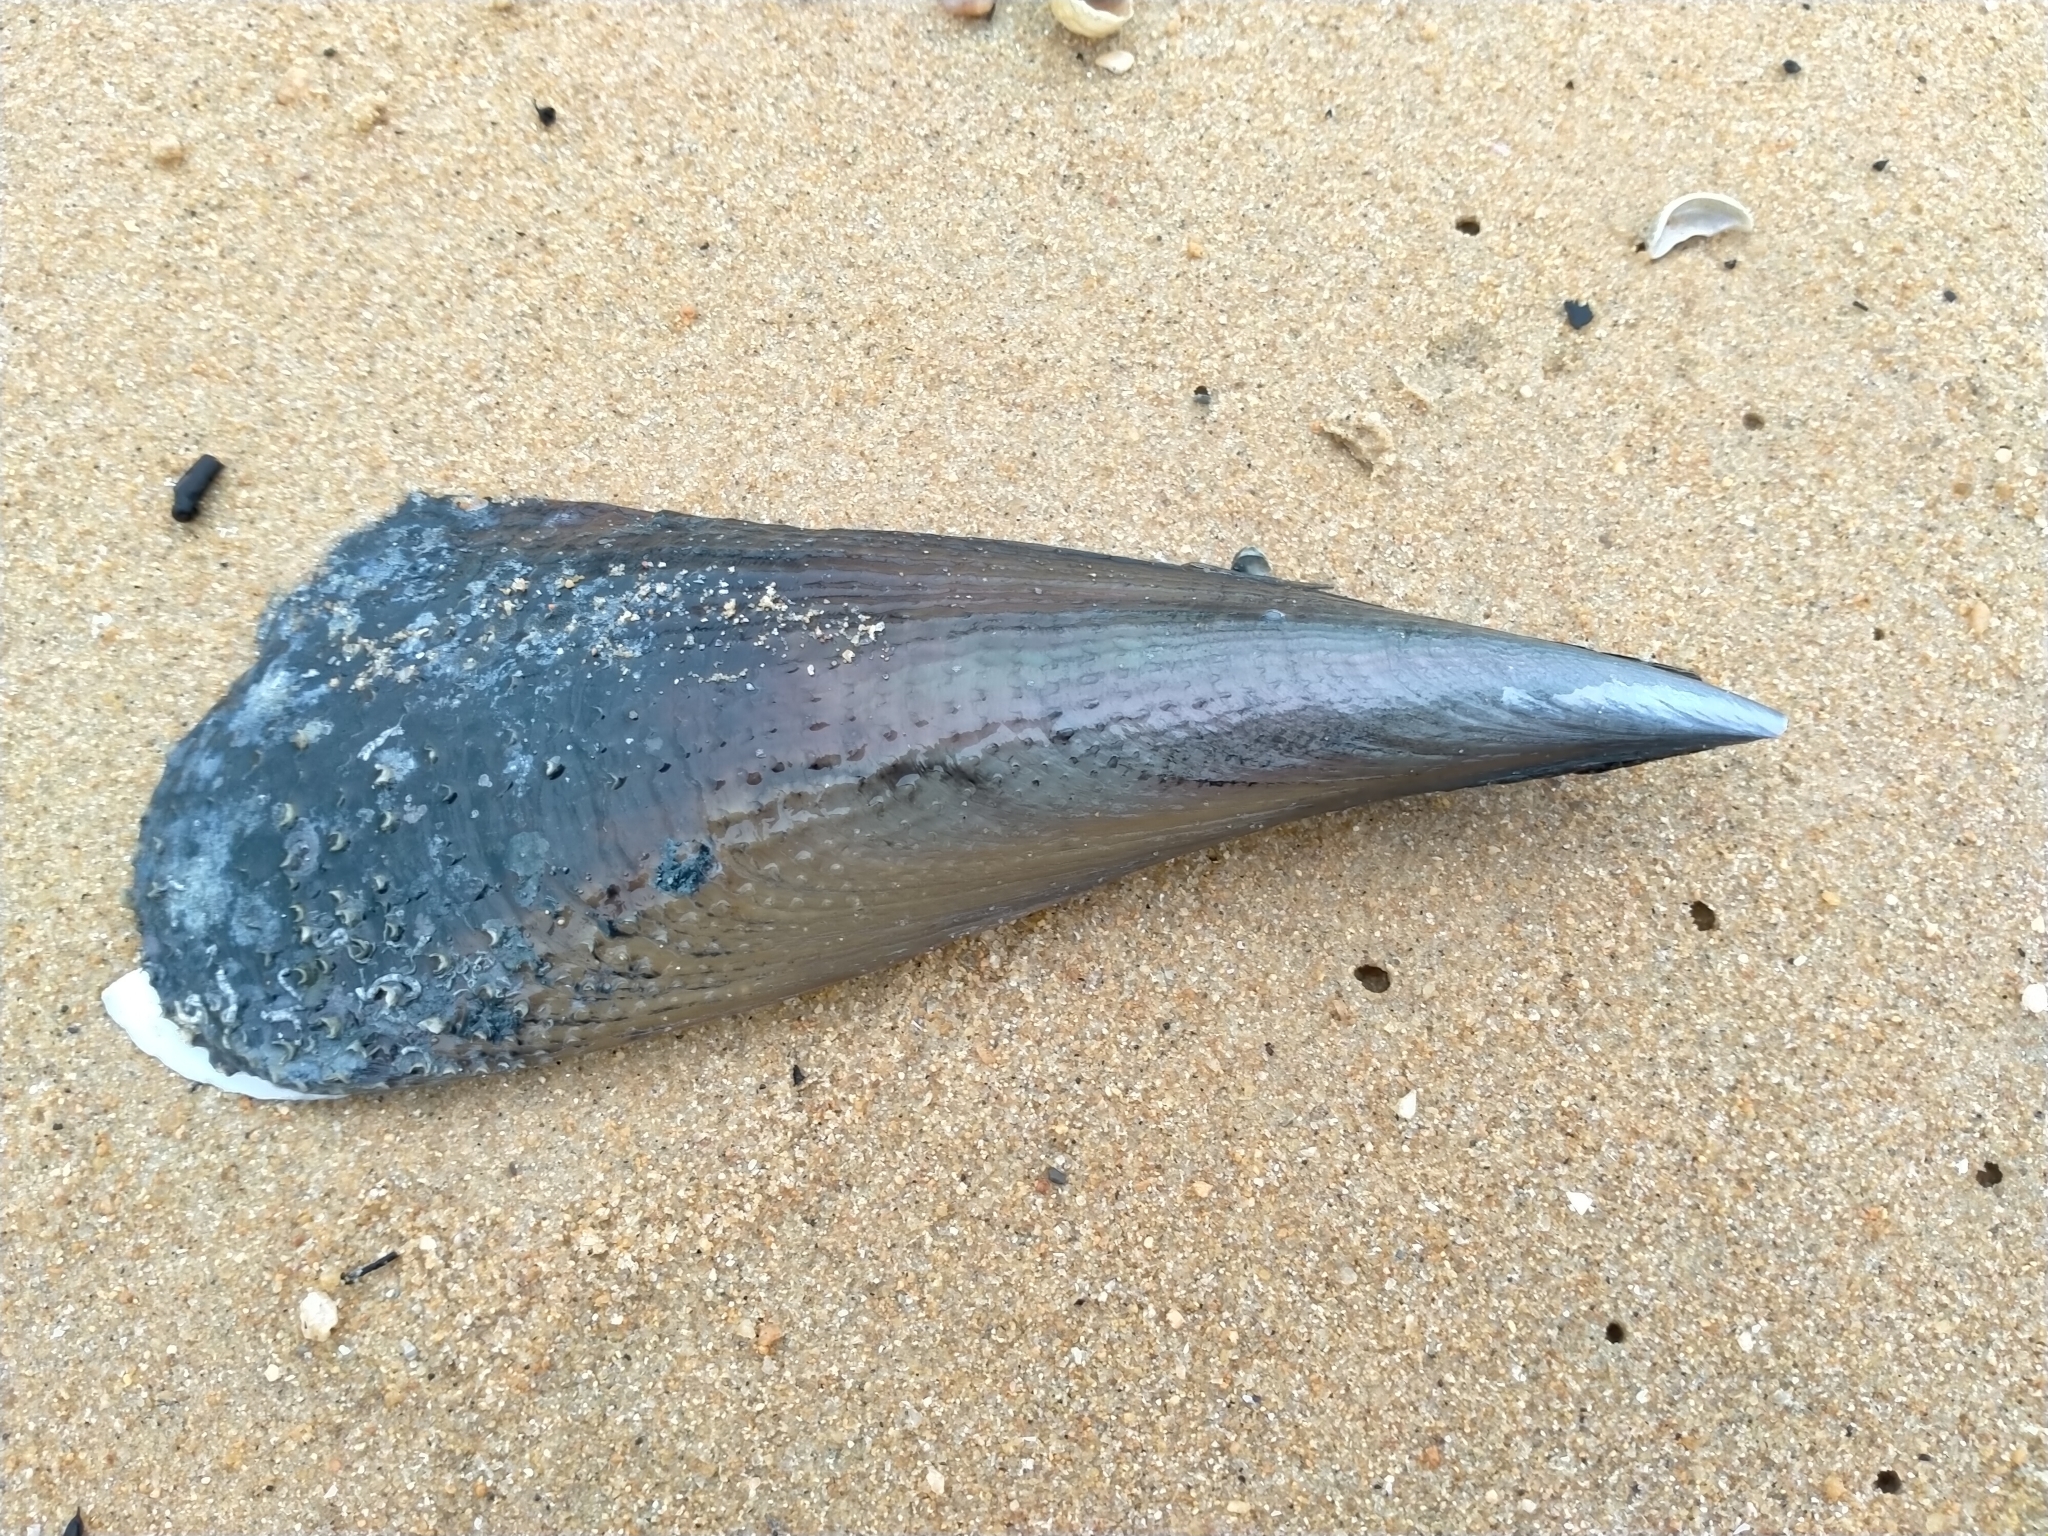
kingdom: Animalia
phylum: Mollusca
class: Bivalvia
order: Ostreida
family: Pinnidae
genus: Atrina
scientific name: Atrina zelandica
